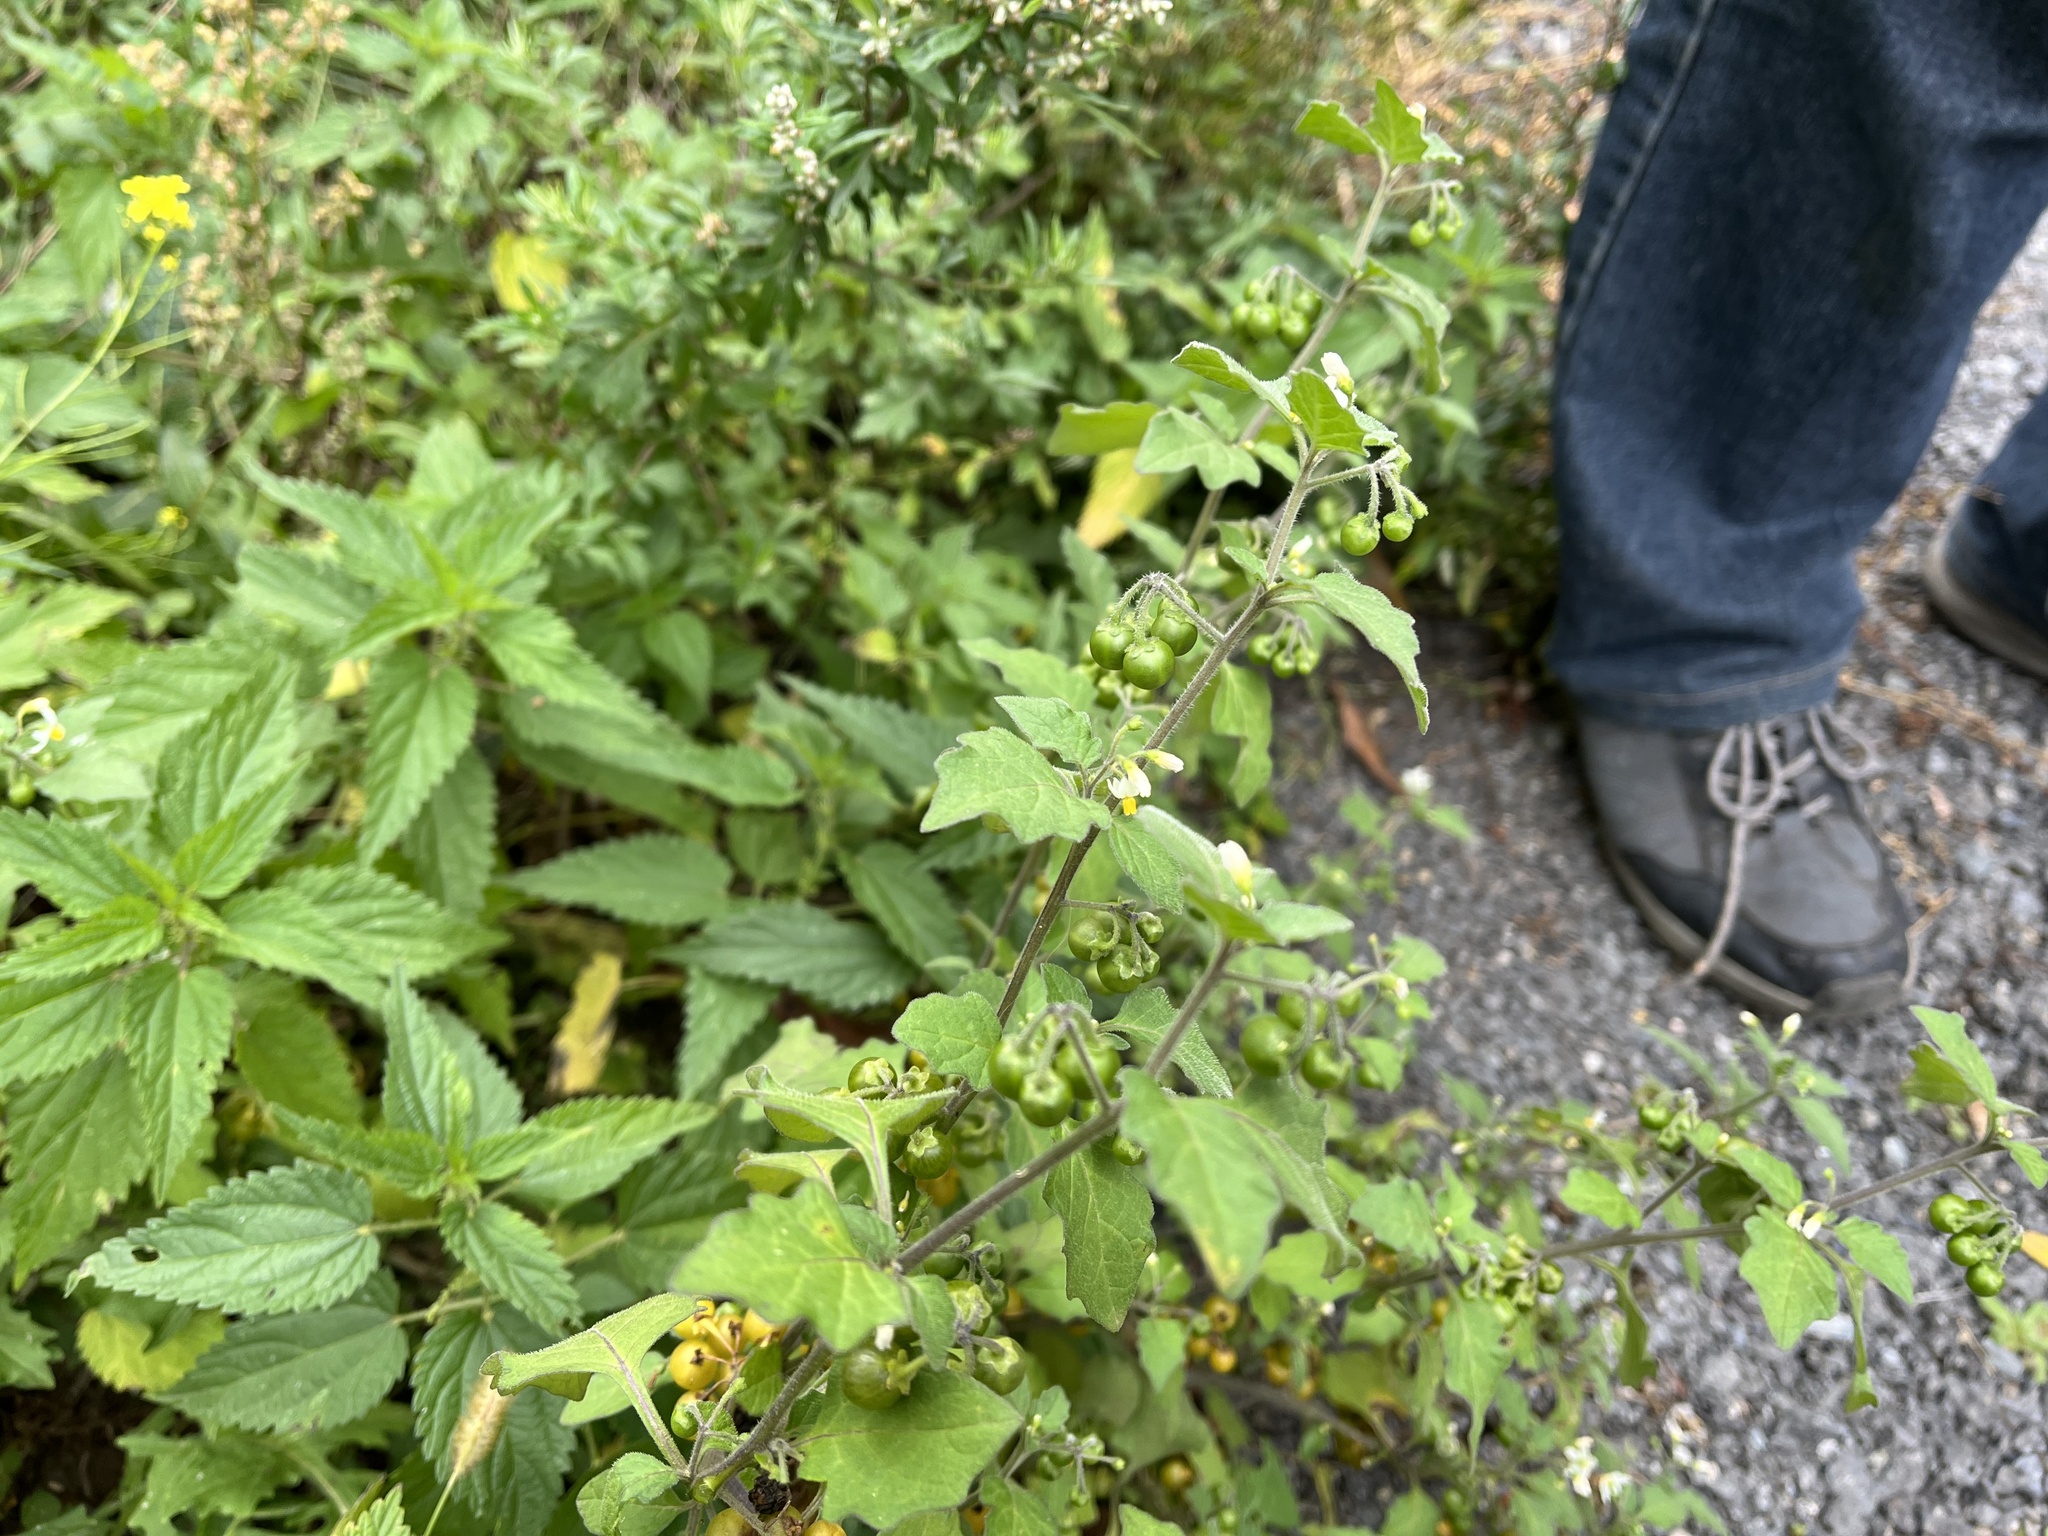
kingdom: Plantae
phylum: Tracheophyta
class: Magnoliopsida
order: Solanales
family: Solanaceae
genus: Solanum
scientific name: Solanum decipiens
